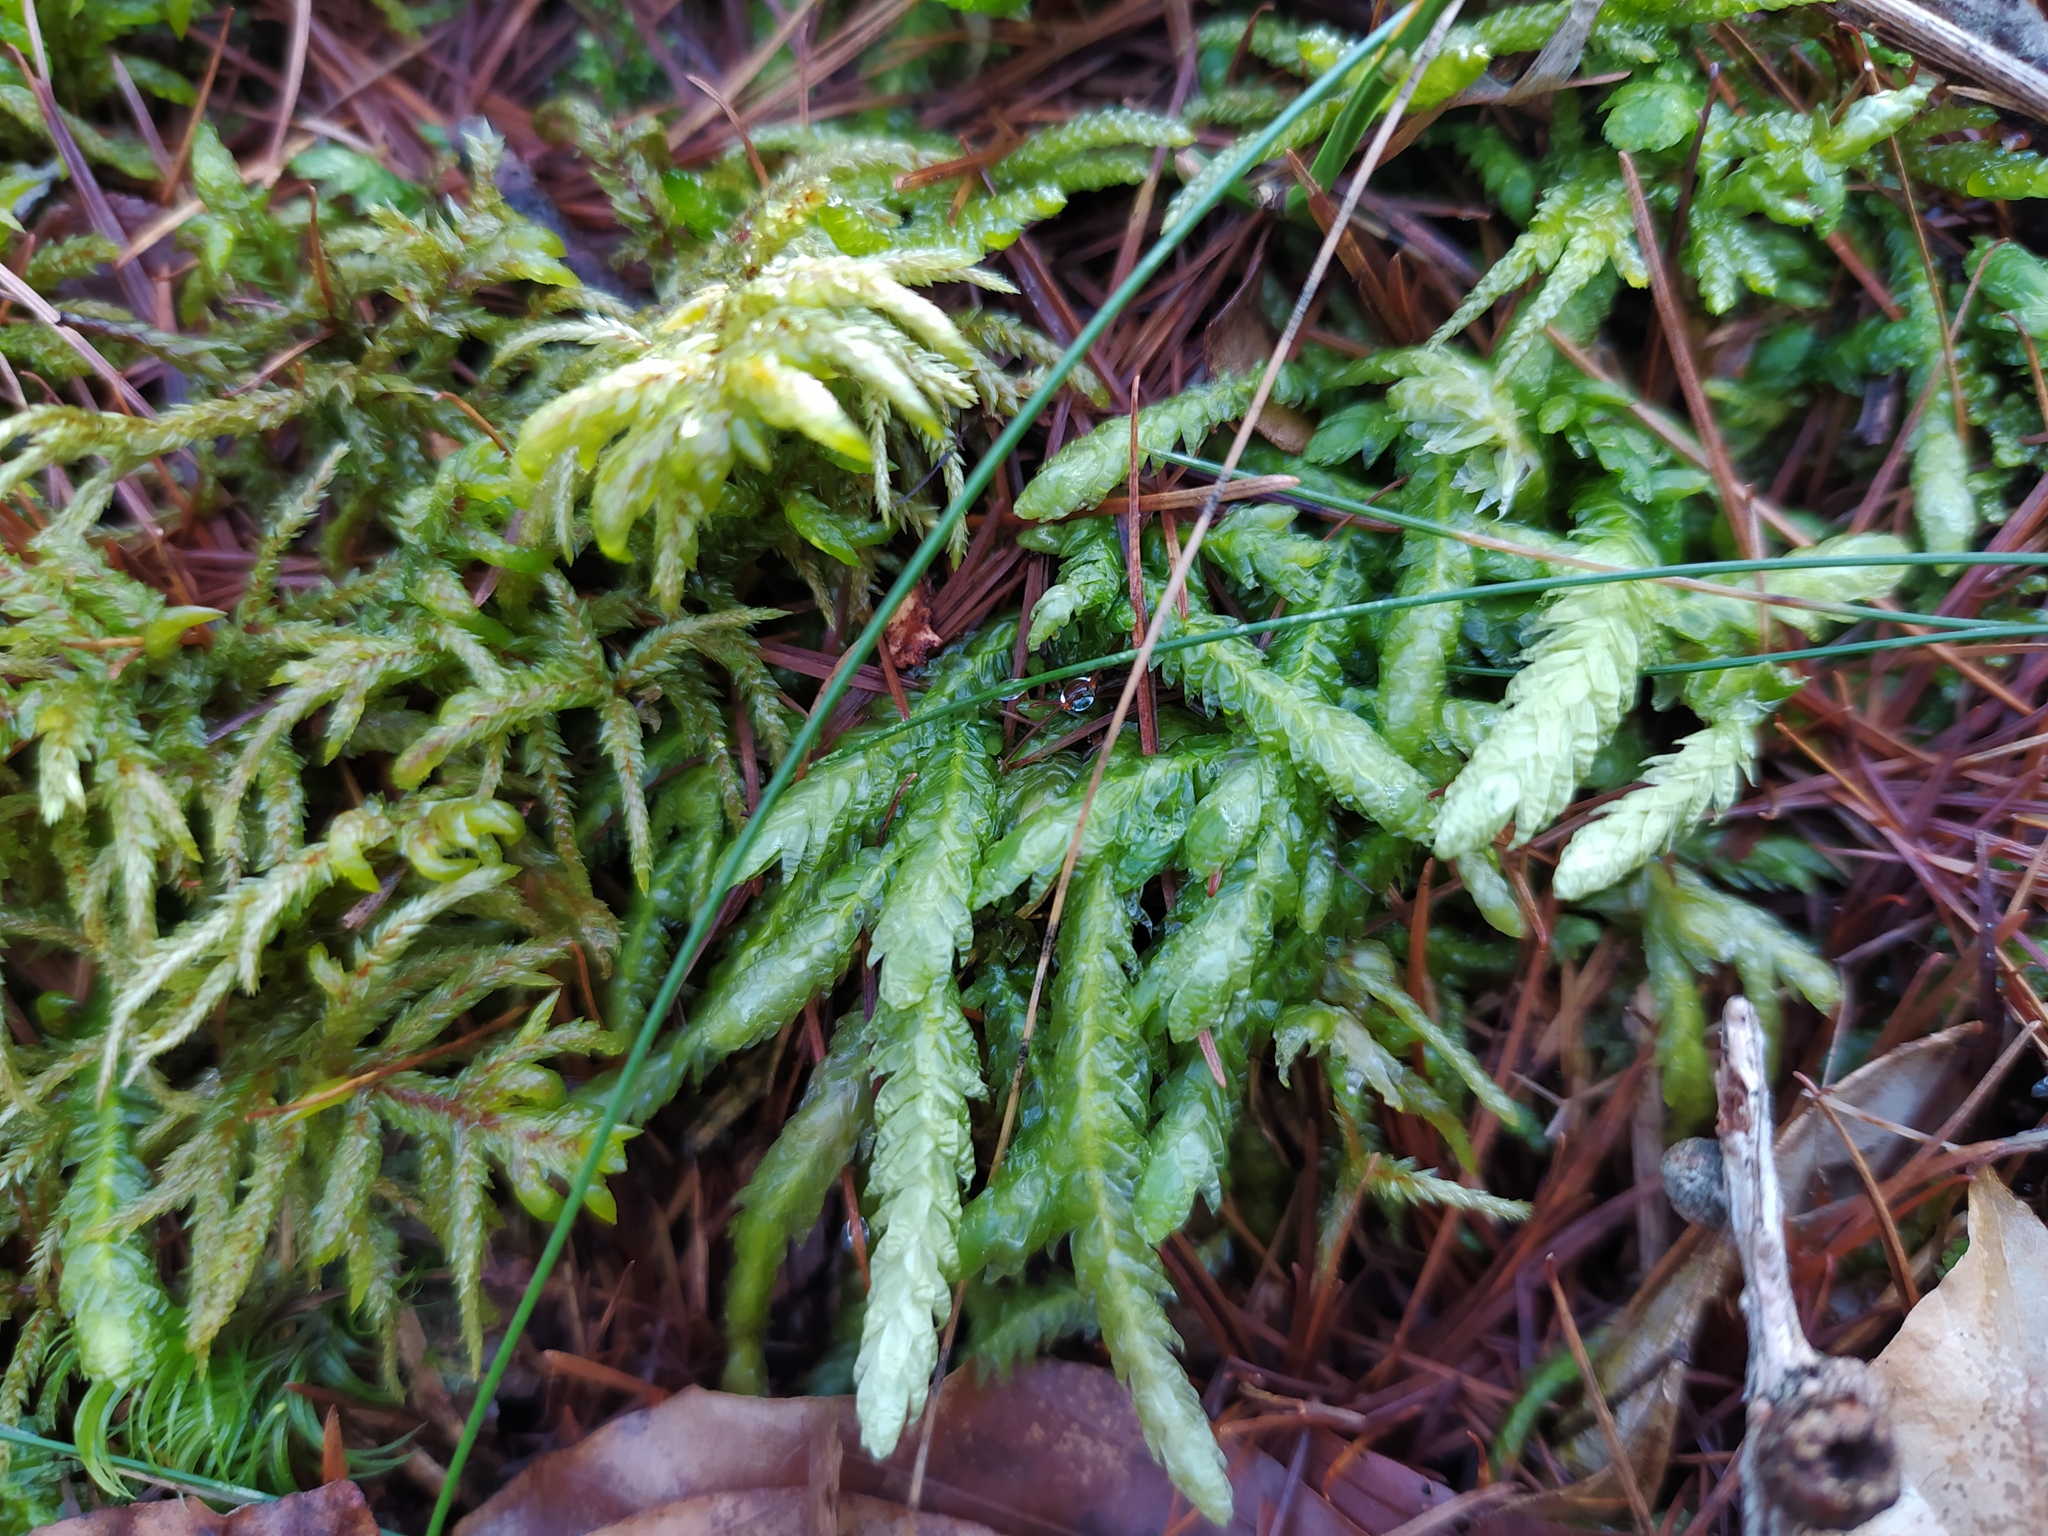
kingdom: Plantae
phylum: Bryophyta
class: Bryopsida
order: Hypnales
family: Plagiotheciaceae
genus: Plagiothecium
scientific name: Plagiothecium undulatum
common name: Waved silk-moss
